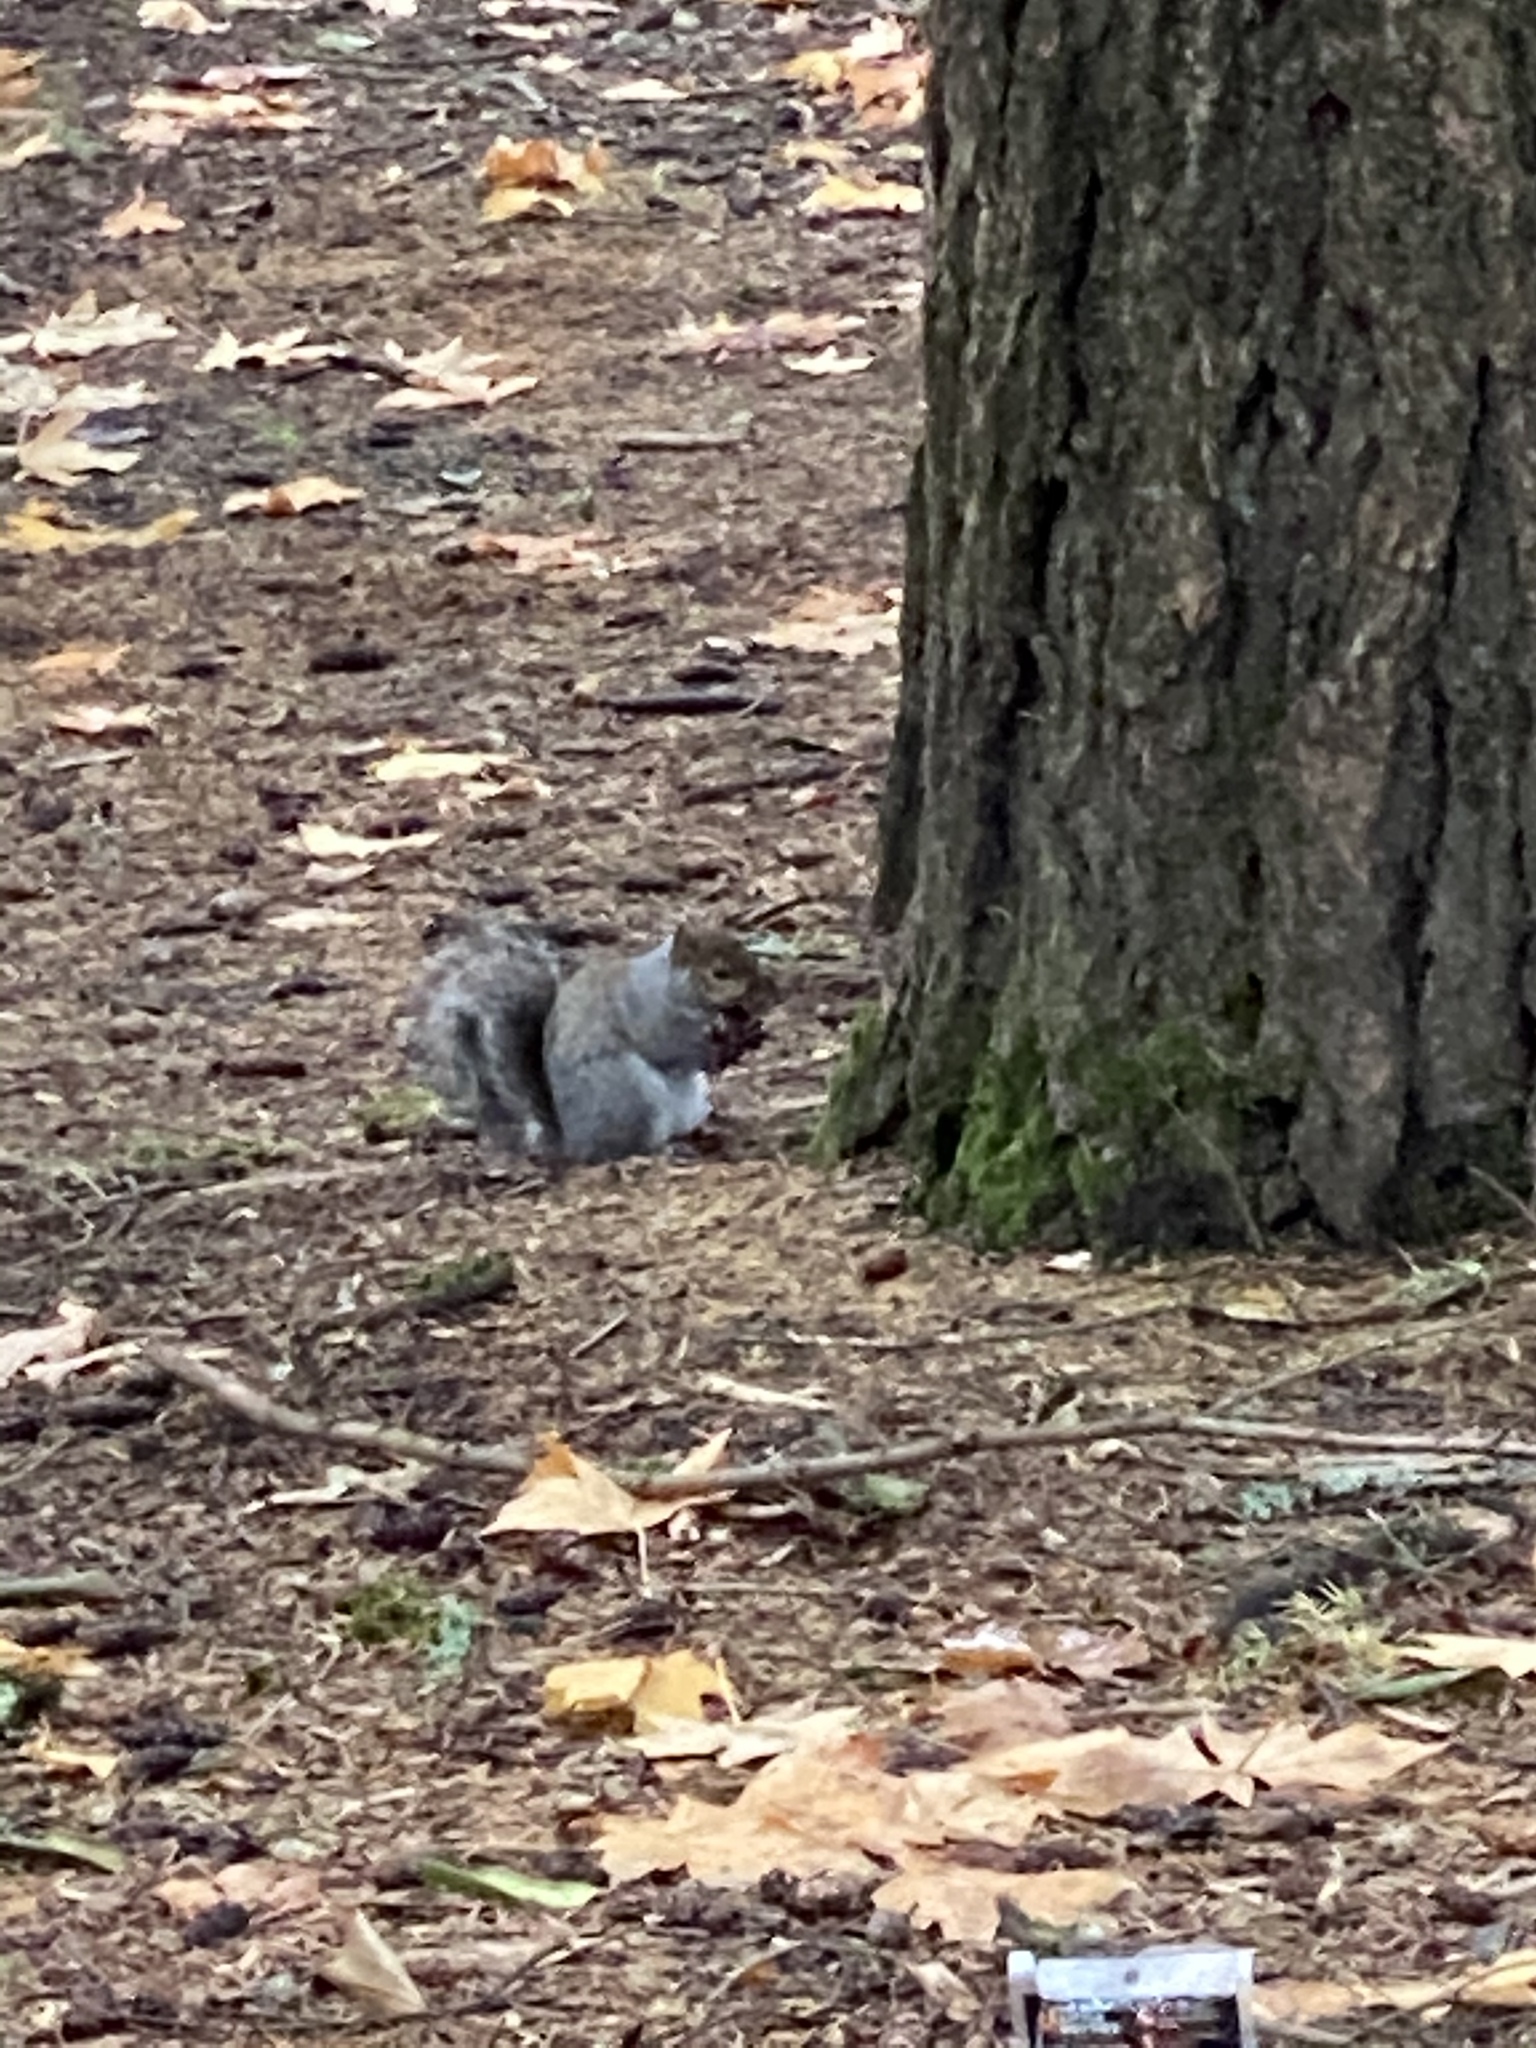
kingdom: Animalia
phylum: Chordata
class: Mammalia
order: Rodentia
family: Sciuridae
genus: Sciurus
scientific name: Sciurus carolinensis
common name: Eastern gray squirrel
